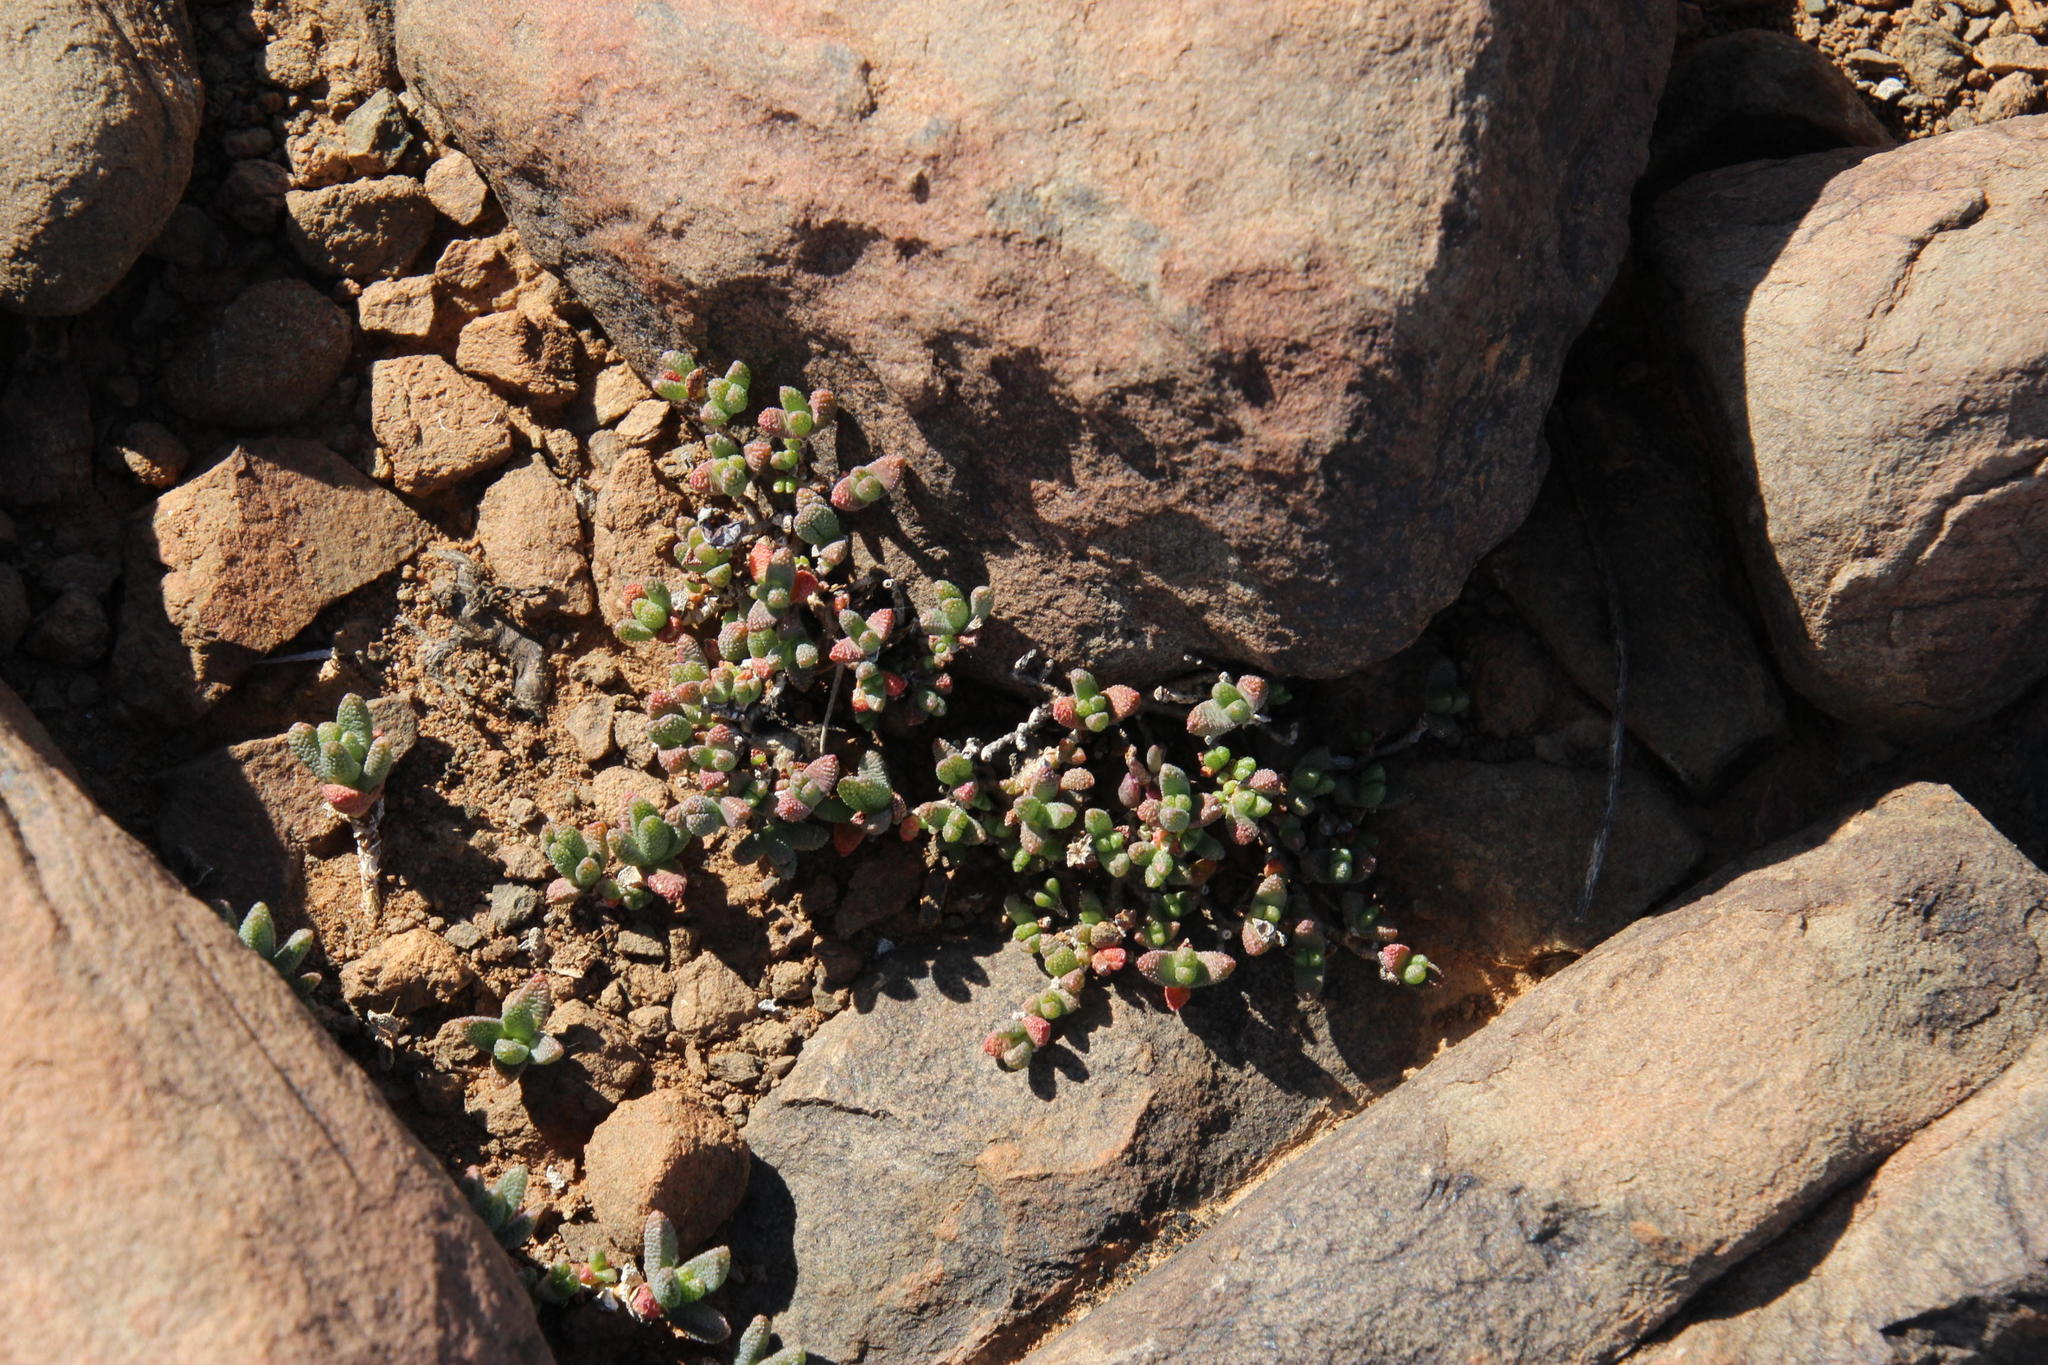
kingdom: Plantae
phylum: Tracheophyta
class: Magnoliopsida
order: Caryophyllales
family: Aizoaceae
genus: Rhinephyllum
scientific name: Rhinephyllum parvifolium
